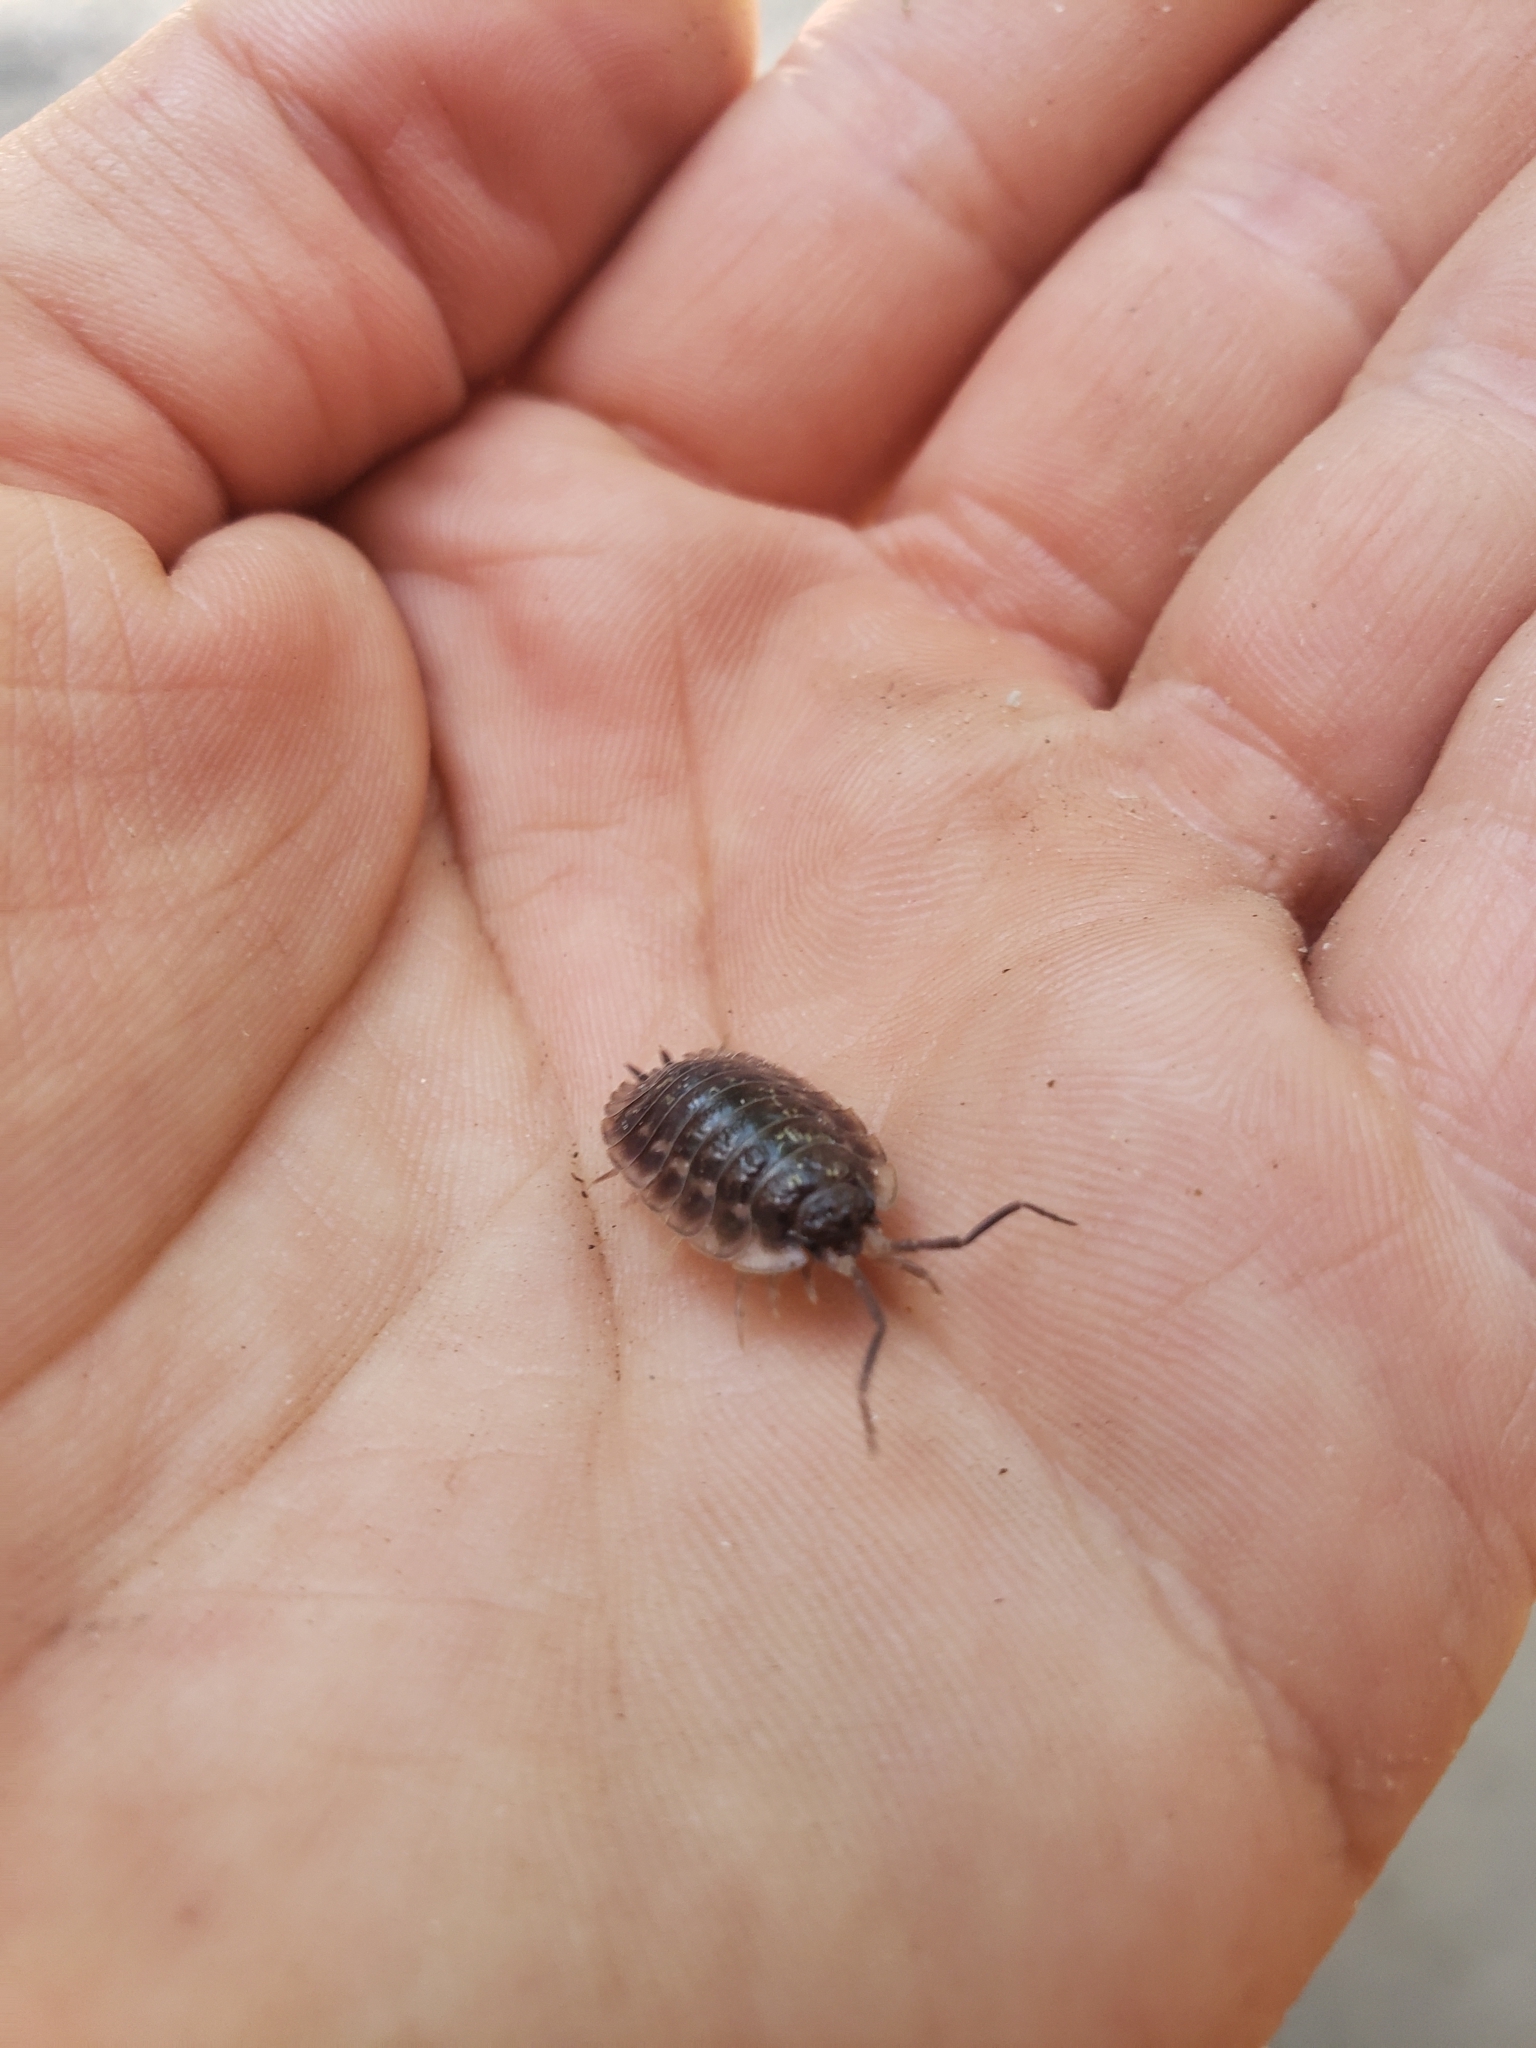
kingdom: Animalia
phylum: Arthropoda
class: Malacostraca
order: Isopoda
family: Oniscidae
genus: Oniscus
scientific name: Oniscus asellus
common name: Common shiny woodlouse
